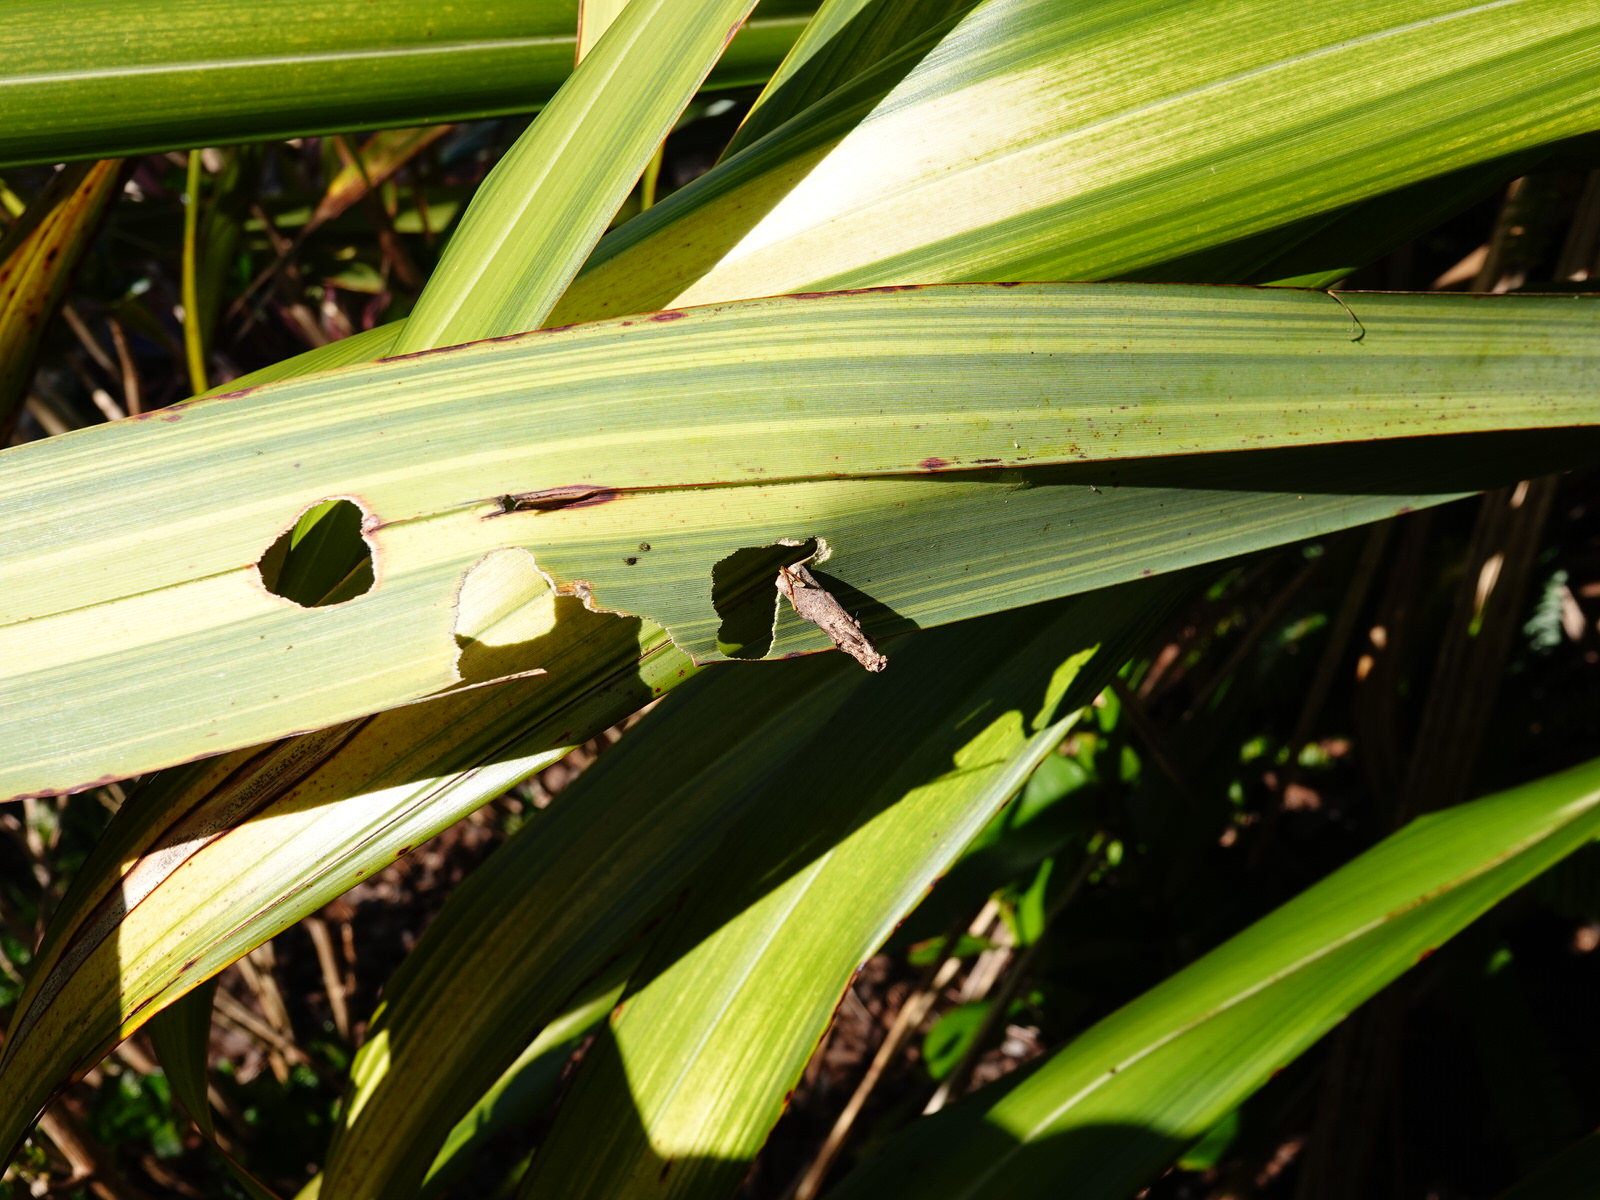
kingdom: Animalia
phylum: Arthropoda
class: Insecta
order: Lepidoptera
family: Psychidae
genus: Liothula
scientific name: Liothula omnivora
